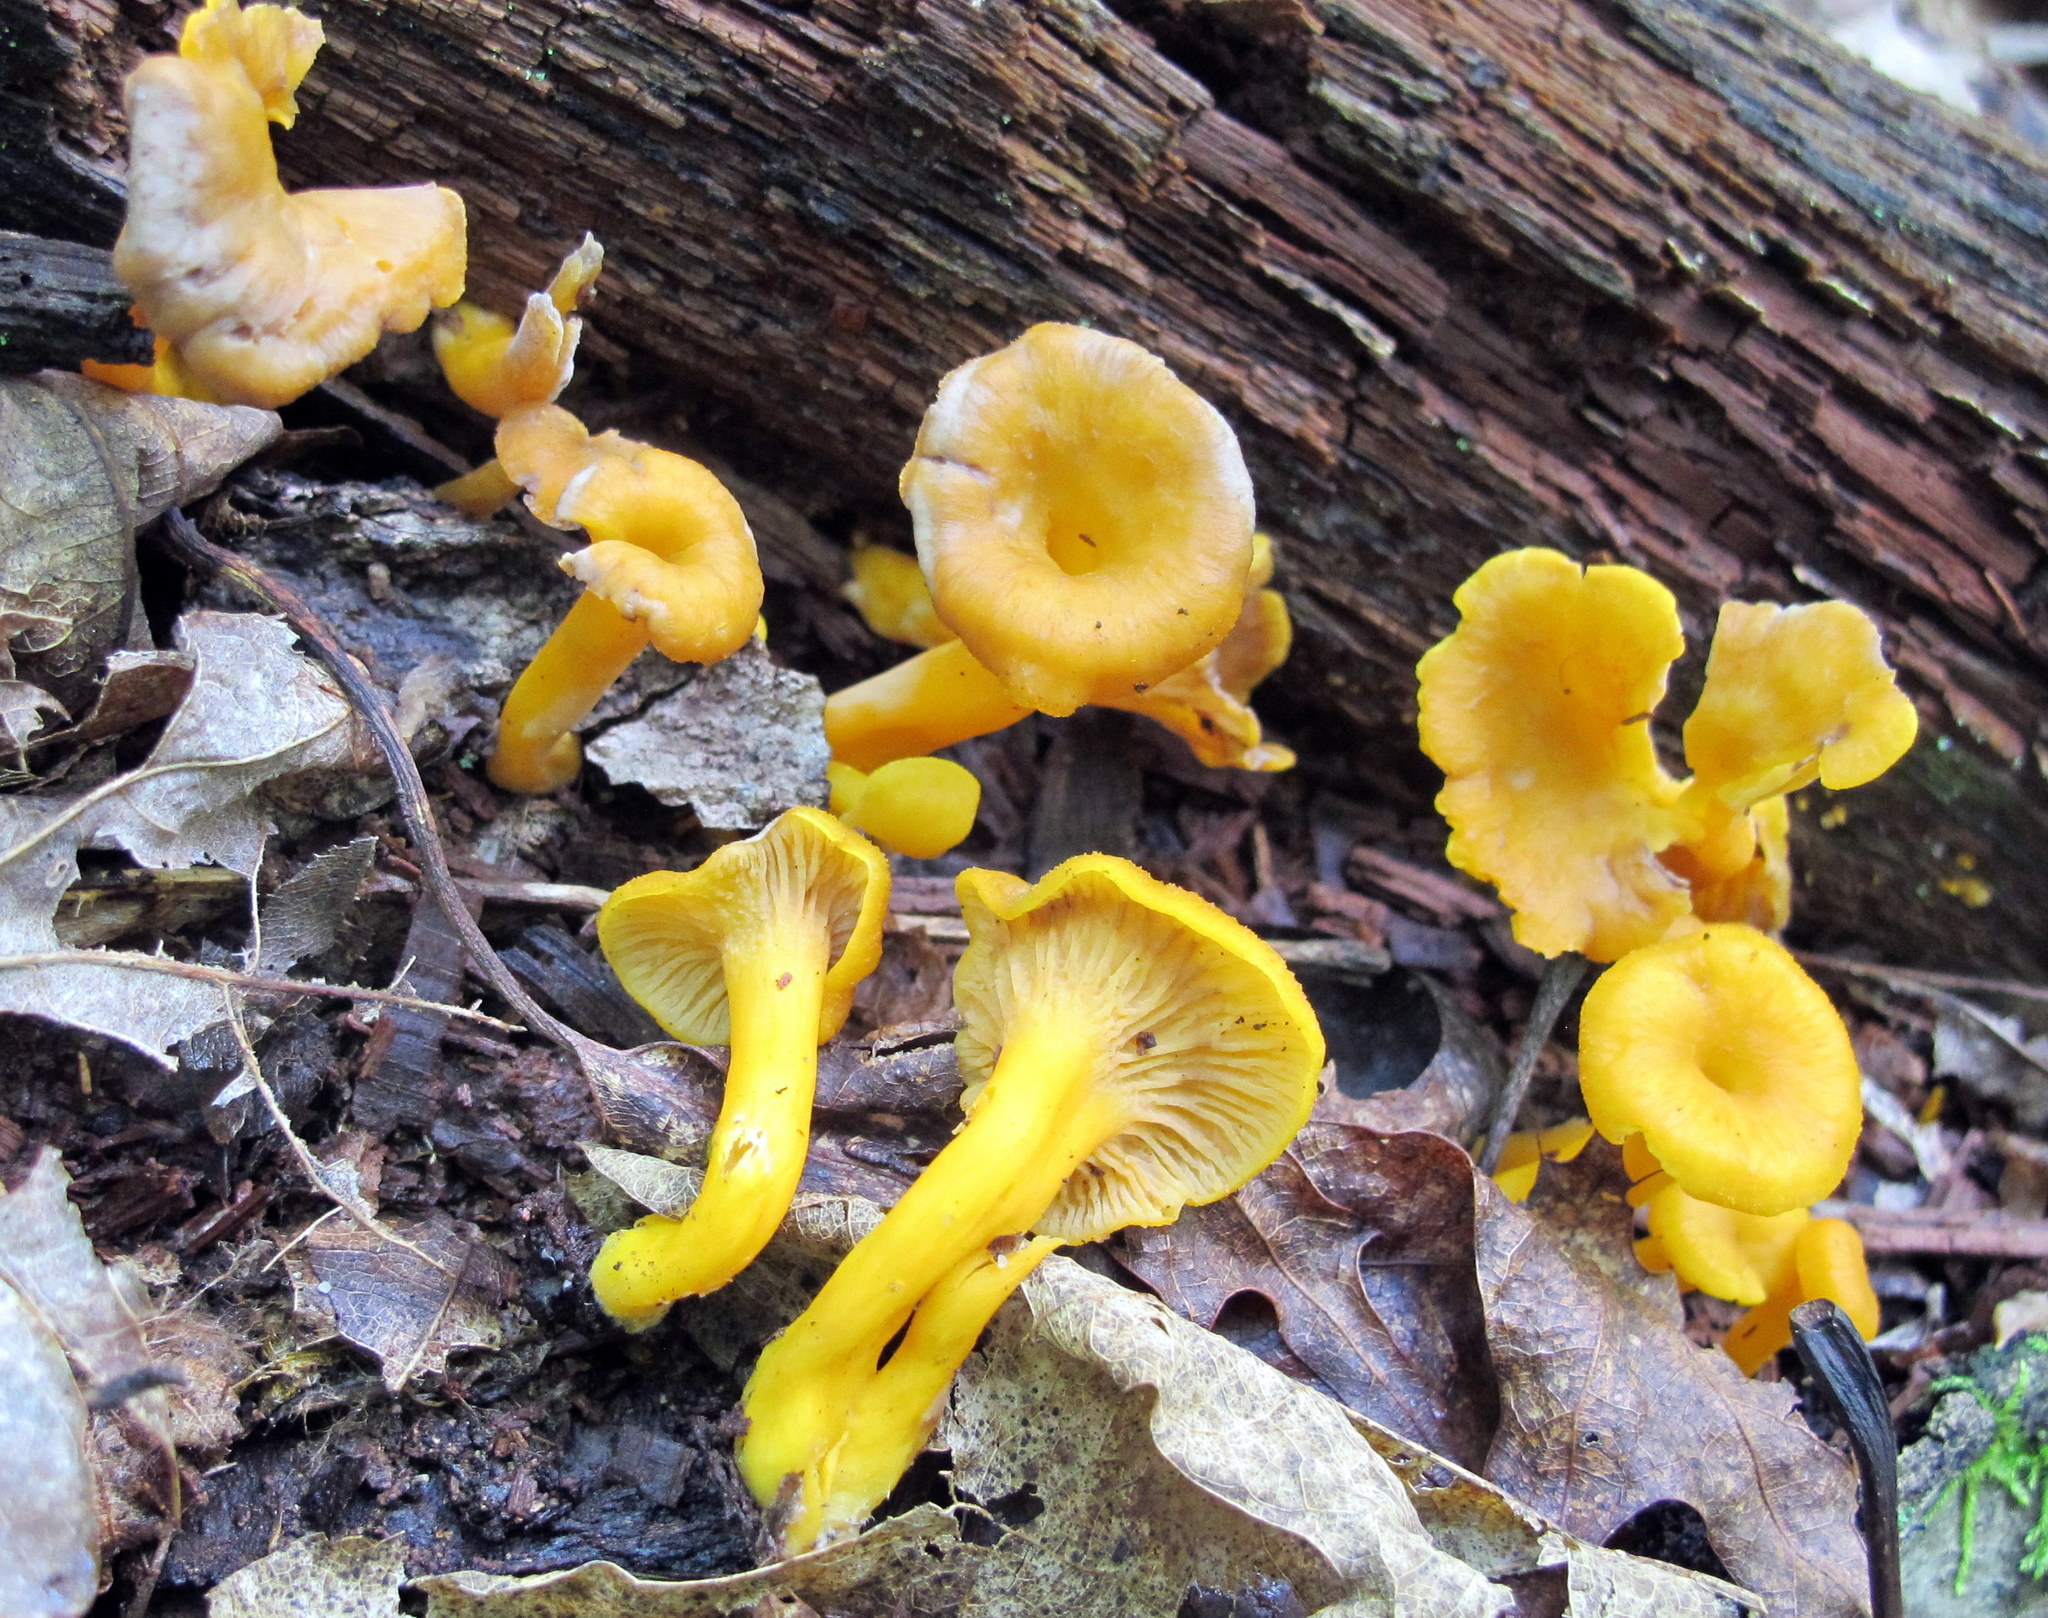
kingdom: Fungi
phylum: Basidiomycota
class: Agaricomycetes
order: Cantharellales
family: Hydnaceae
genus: Craterellus
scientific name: Craterellus ignicolor
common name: Flame chanterelle
